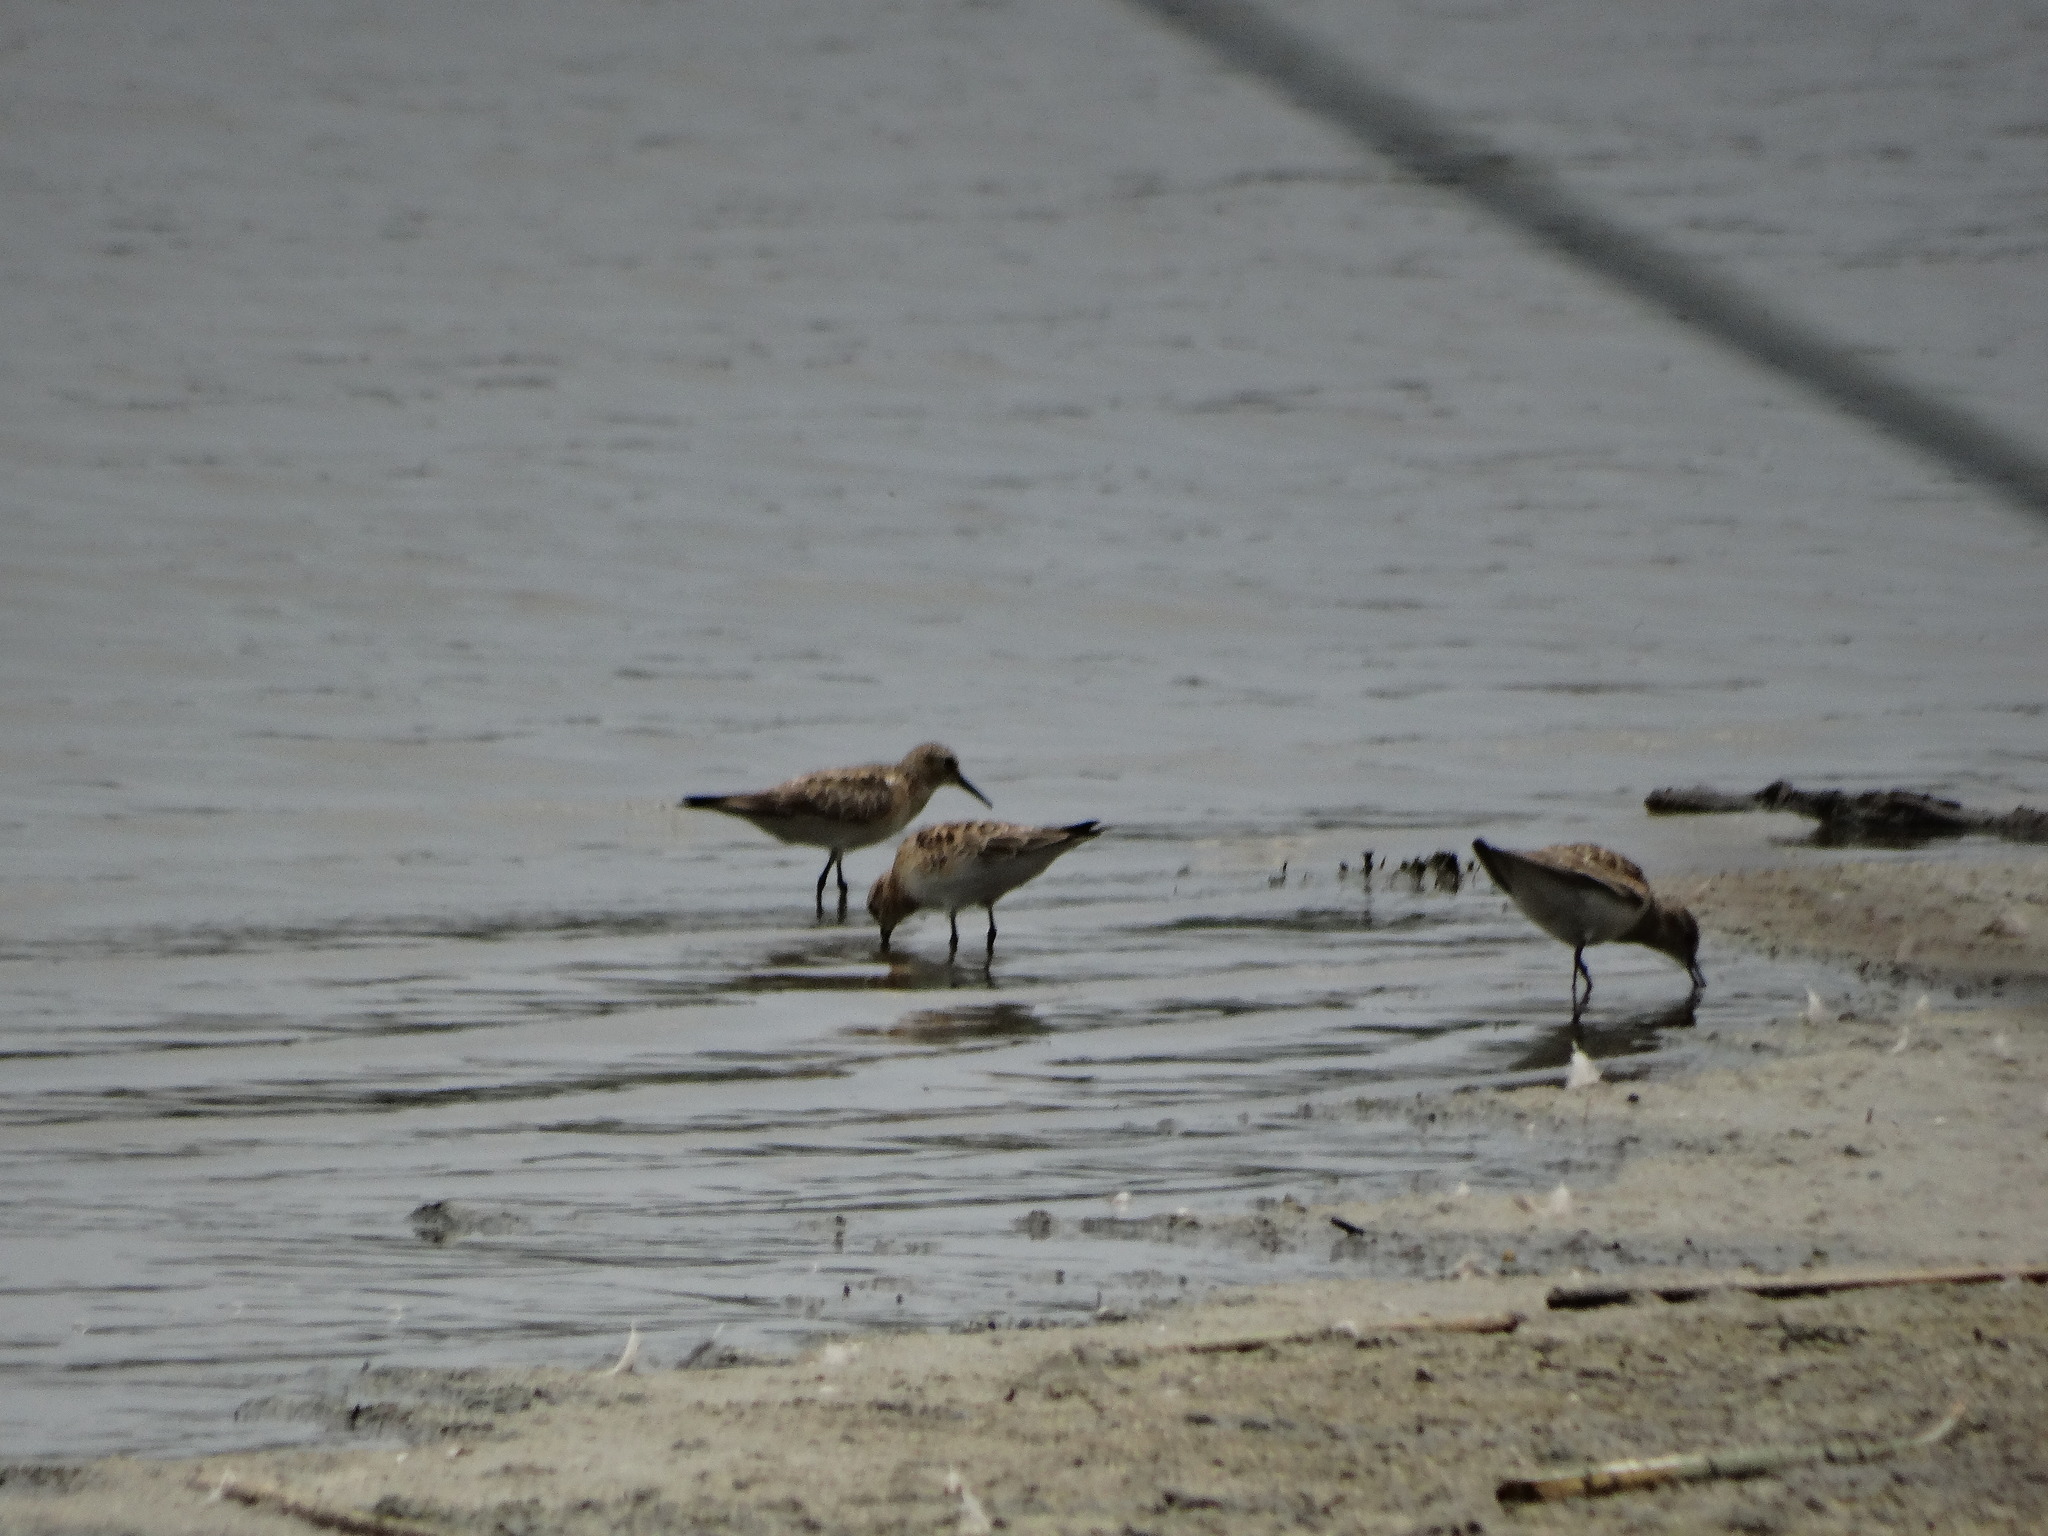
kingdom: Animalia
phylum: Chordata
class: Aves
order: Charadriiformes
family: Scolopacidae
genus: Calidris
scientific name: Calidris bairdii
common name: Baird's sandpiper
